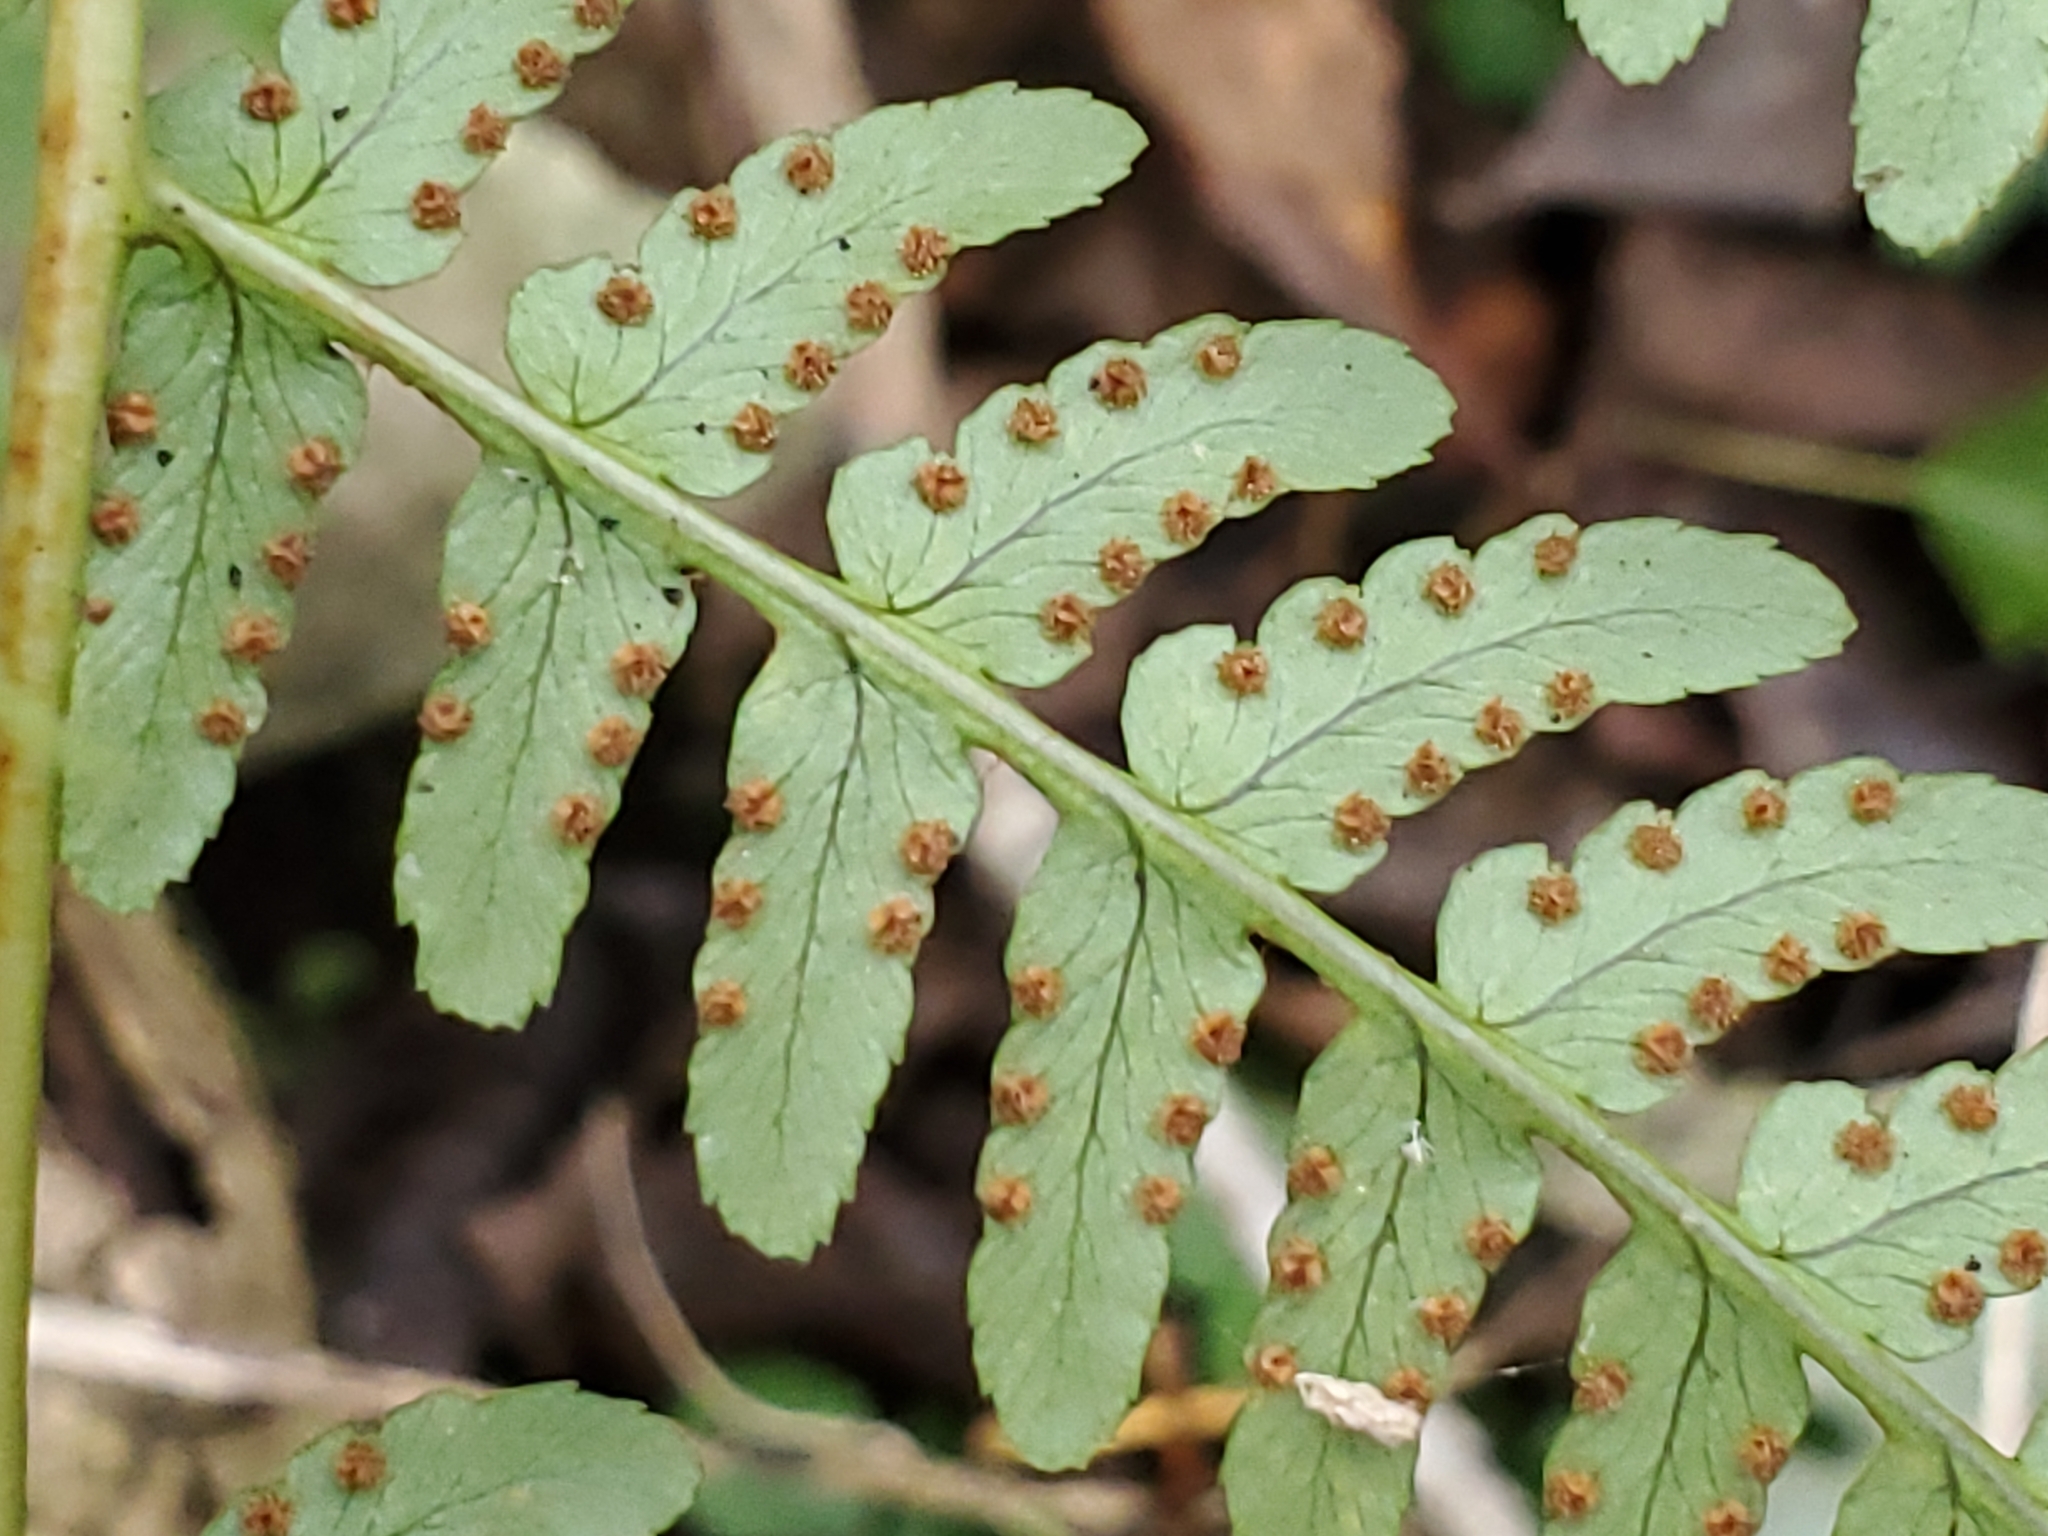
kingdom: Plantae
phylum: Tracheophyta
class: Polypodiopsida
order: Polypodiales
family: Dryopteridaceae
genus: Dryopteris
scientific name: Dryopteris marginalis
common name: Marginal wood fern
